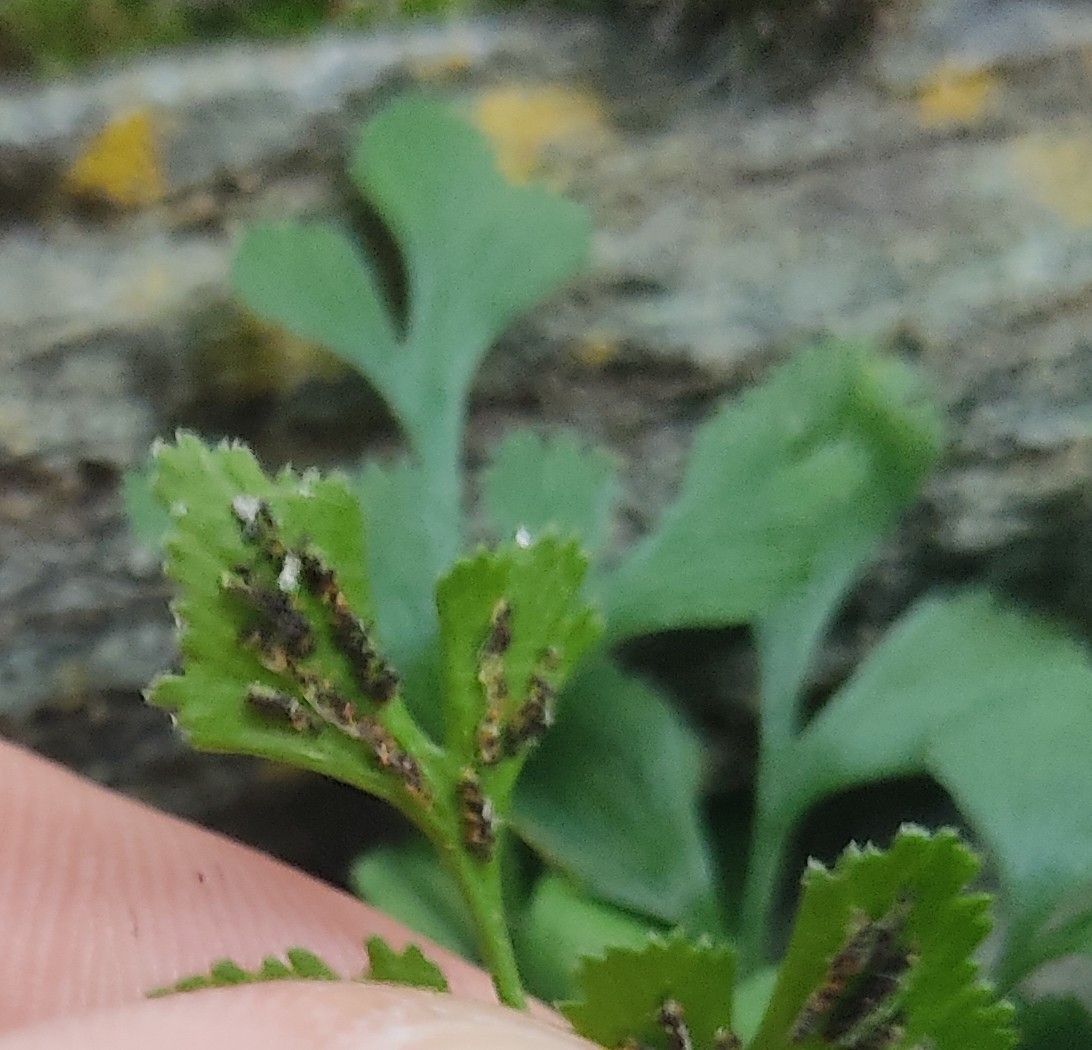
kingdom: Plantae
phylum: Tracheophyta
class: Polypodiopsida
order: Polypodiales
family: Aspleniaceae
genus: Asplenium
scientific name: Asplenium ruta-muraria
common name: Wall-rue
